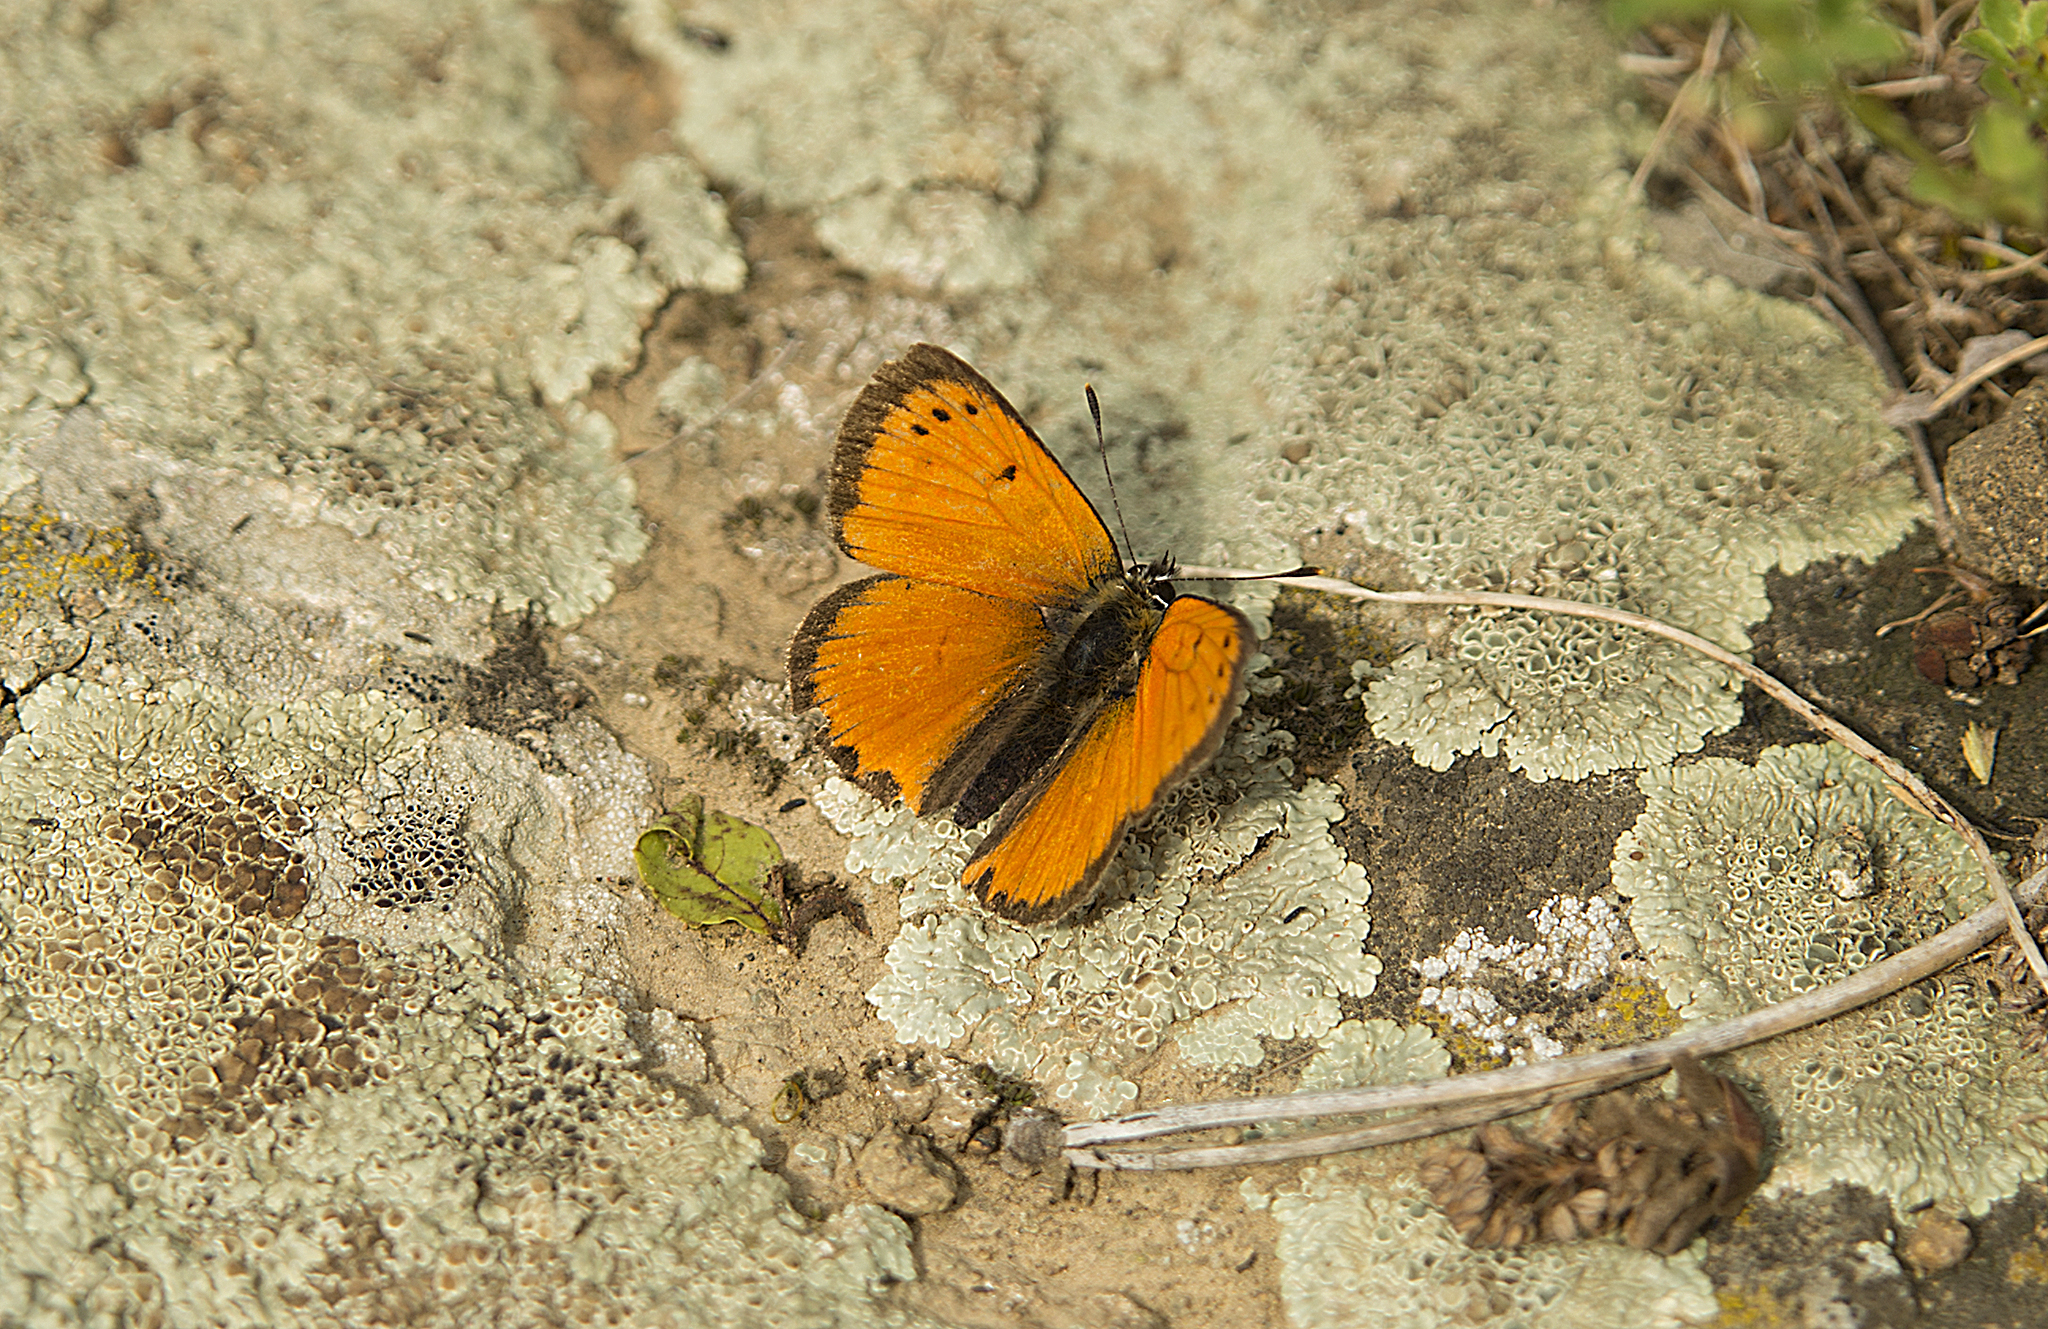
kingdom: Animalia
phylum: Arthropoda
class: Insecta
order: Lepidoptera
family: Lycaenidae
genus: Polyommatus
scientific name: Polyommatus ottomanus
